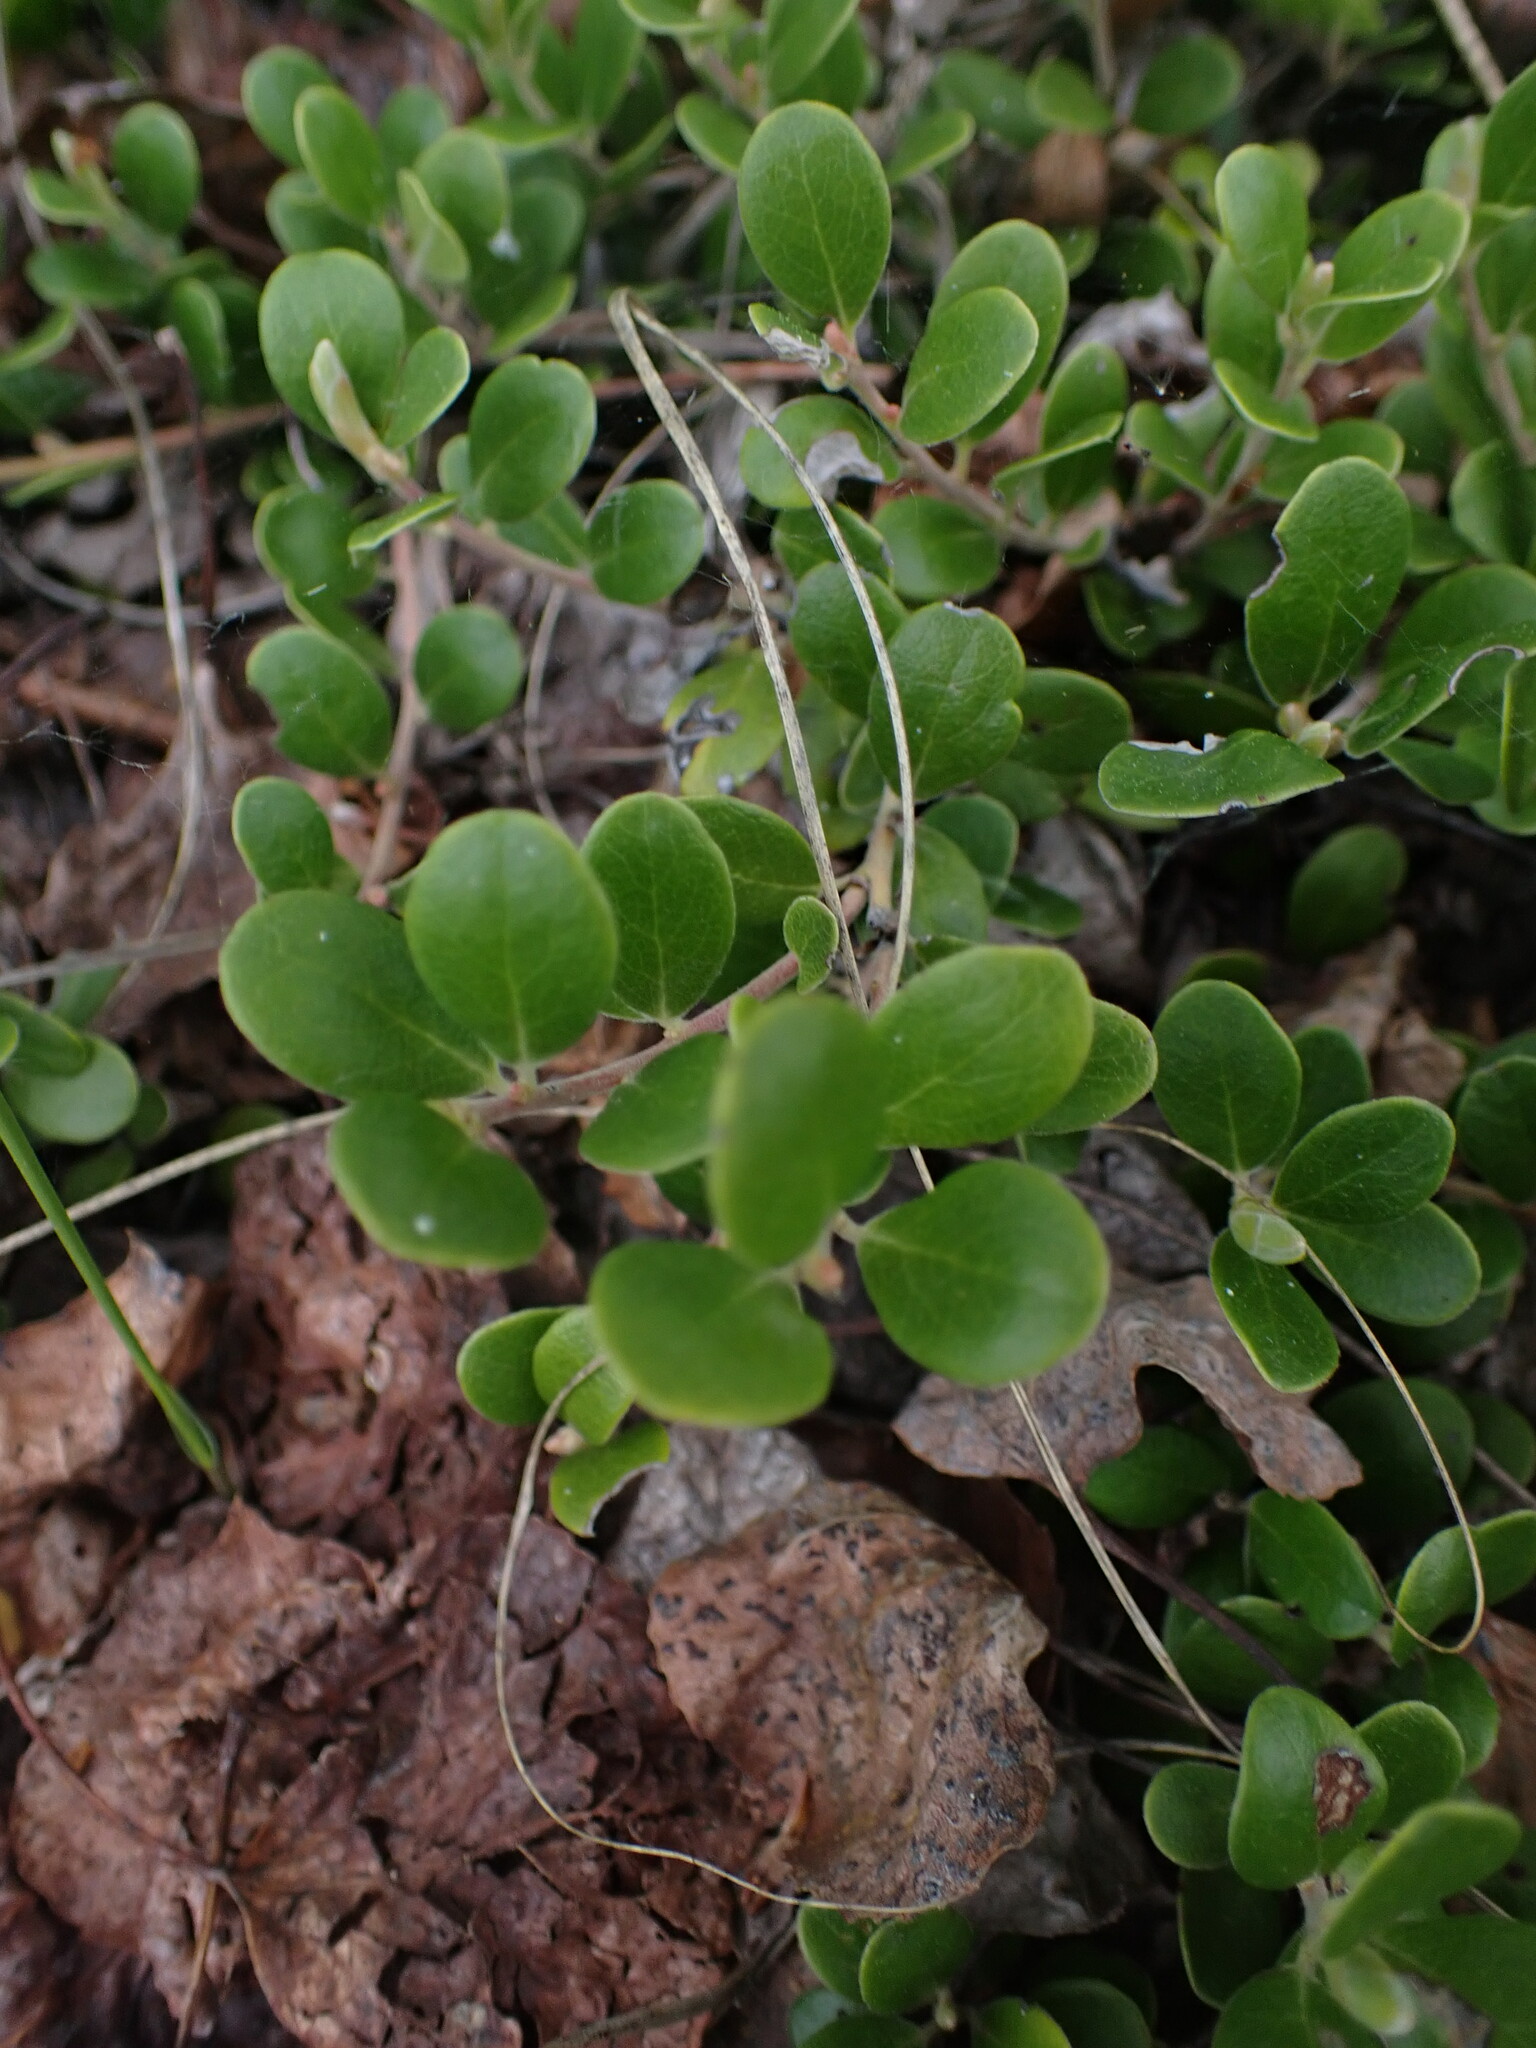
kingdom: Plantae
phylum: Tracheophyta
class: Magnoliopsida
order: Ericales
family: Ericaceae
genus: Arctostaphylos
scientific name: Arctostaphylos uva-ursi
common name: Bearberry
